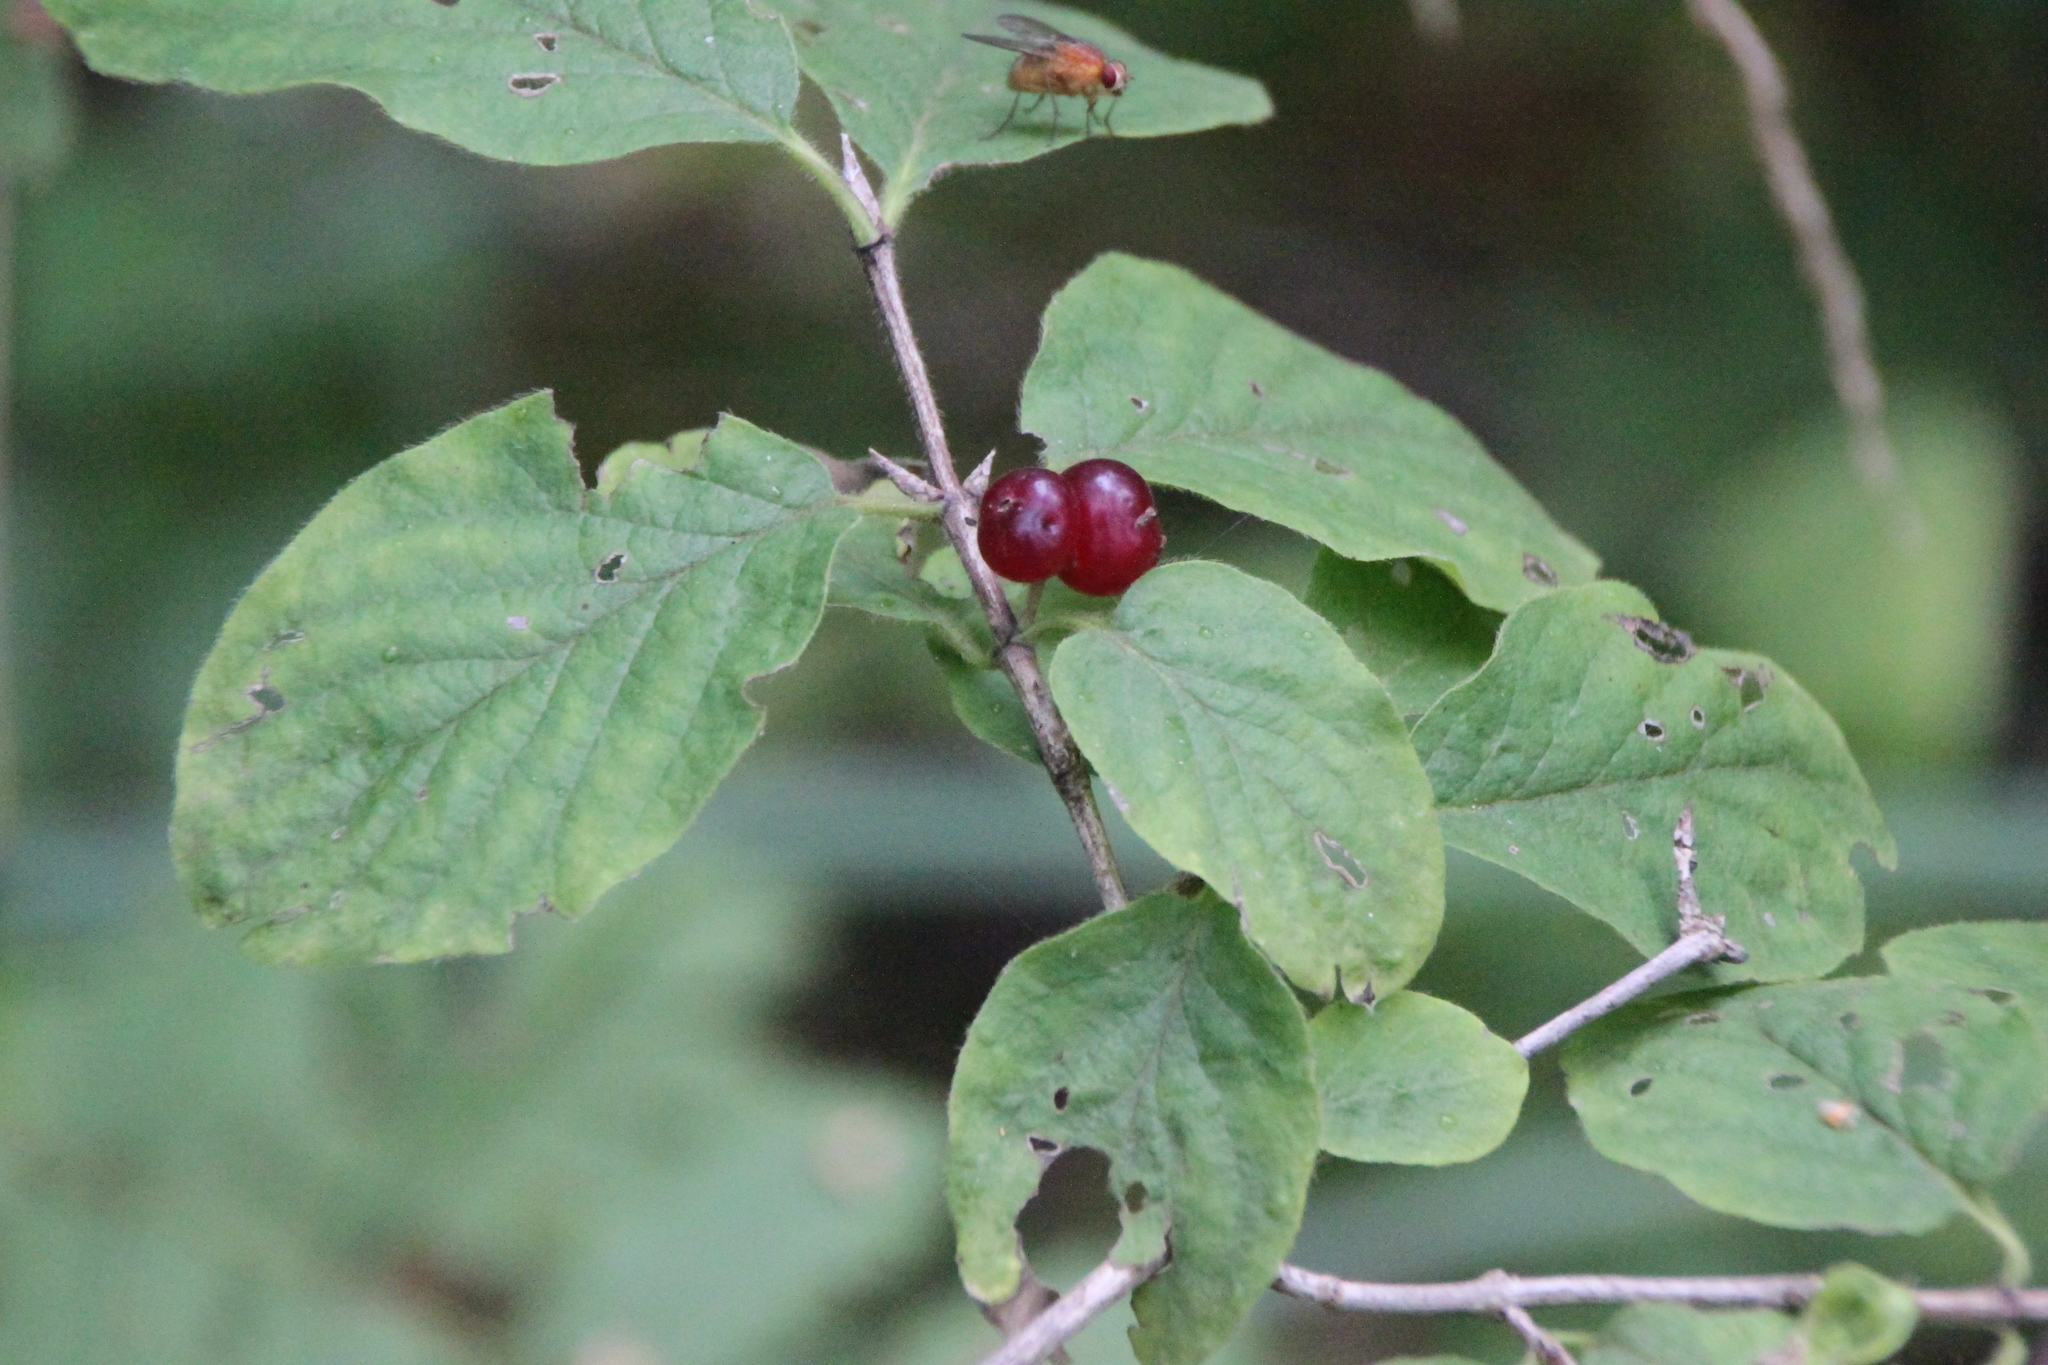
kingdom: Plantae
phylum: Tracheophyta
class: Magnoliopsida
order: Dipsacales
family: Caprifoliaceae
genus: Lonicera
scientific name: Lonicera xylosteum
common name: Fly honeysuckle
